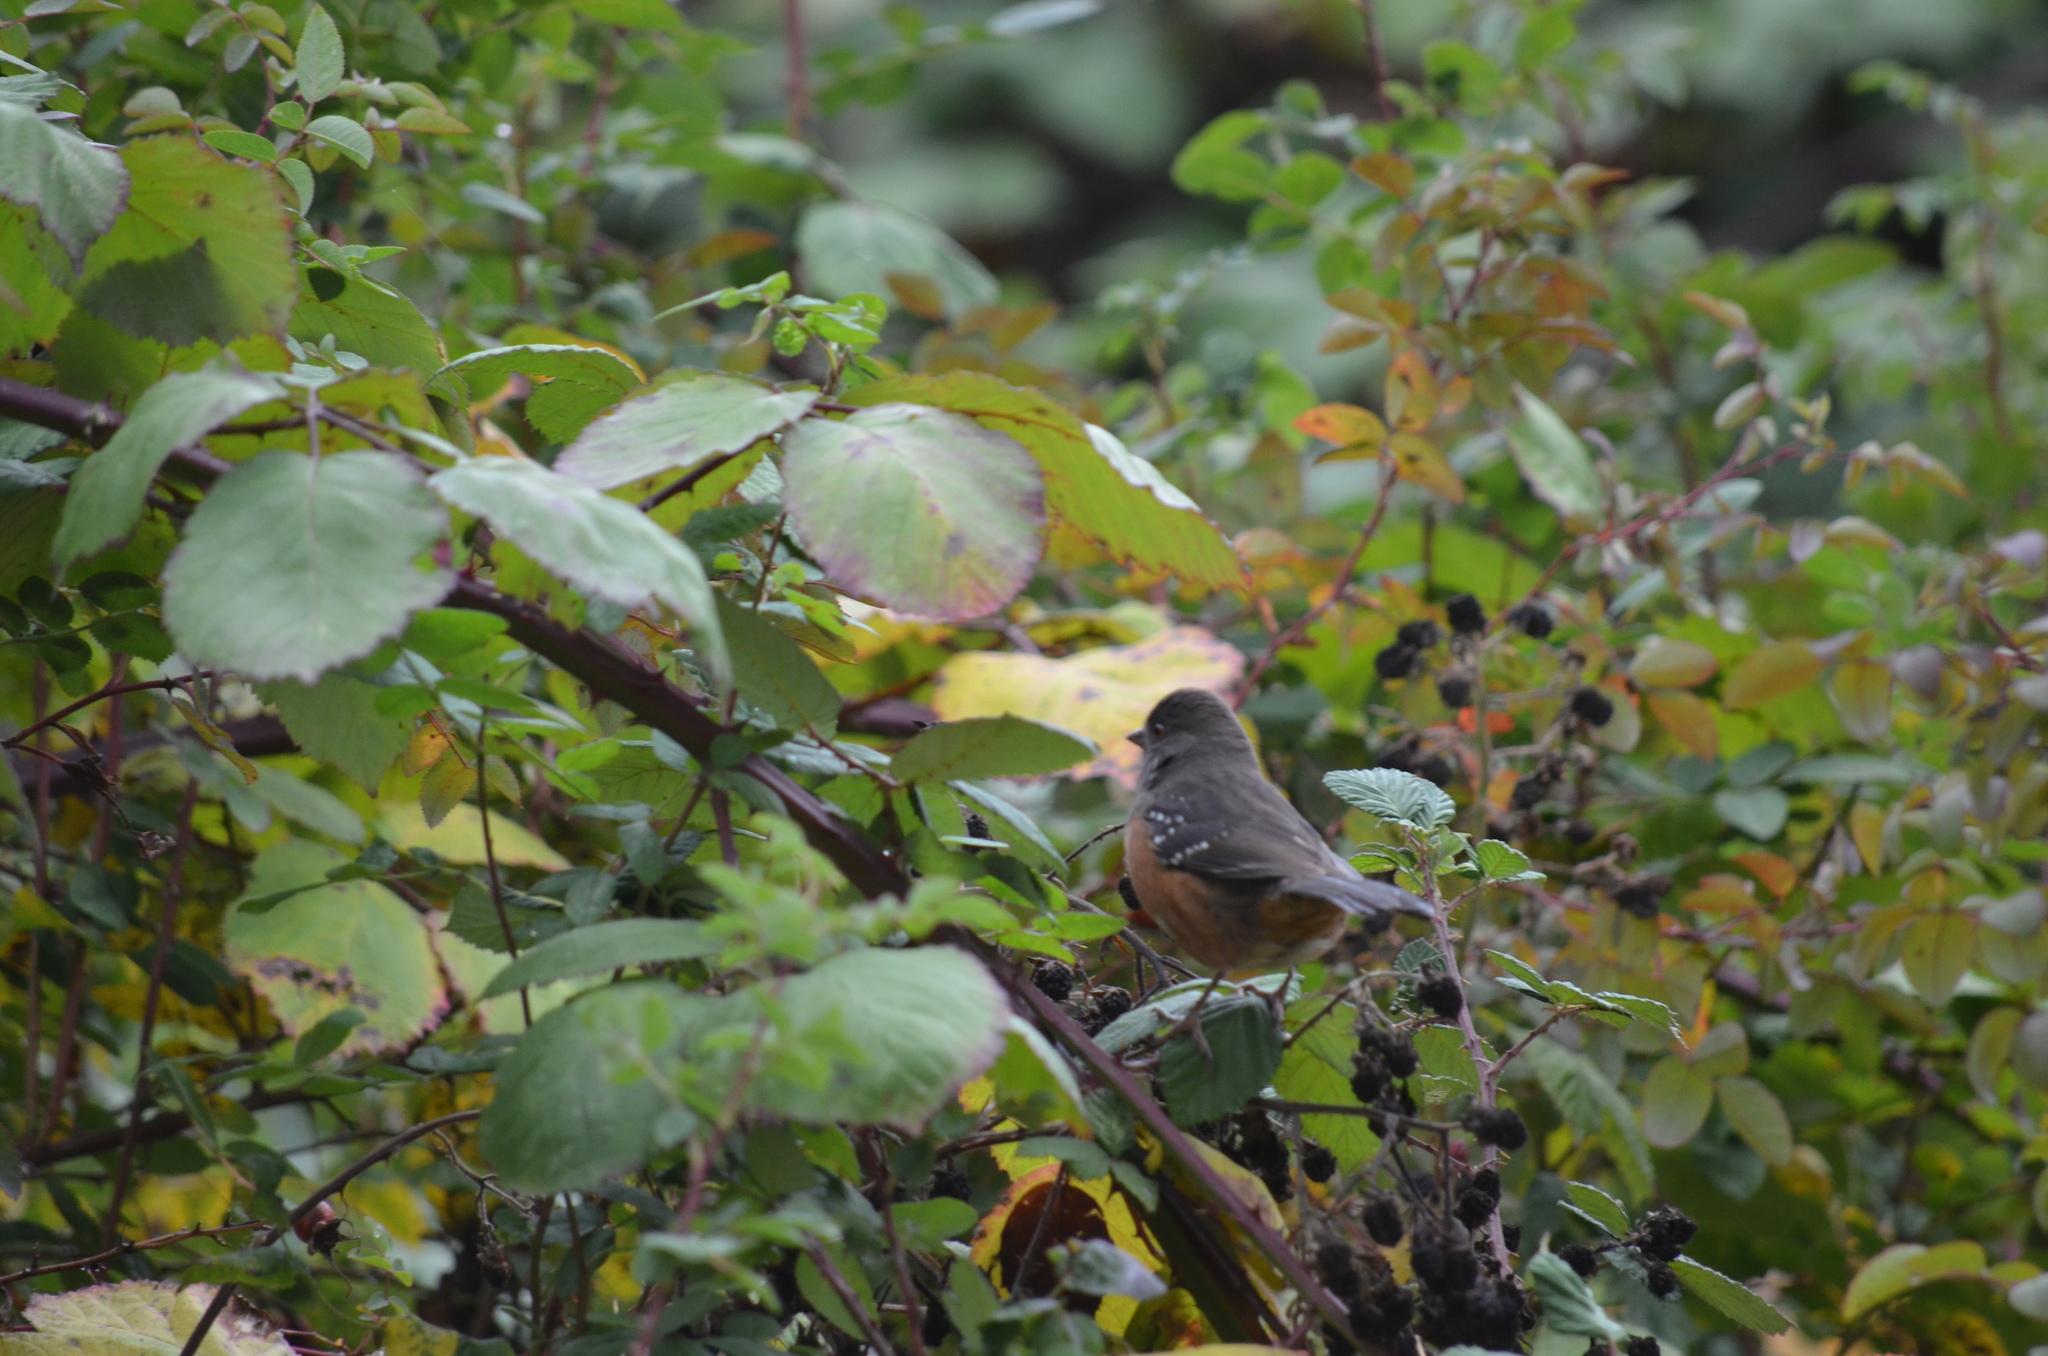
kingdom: Animalia
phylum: Chordata
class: Aves
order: Passeriformes
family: Passerellidae
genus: Pipilo
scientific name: Pipilo maculatus
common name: Spotted towhee
